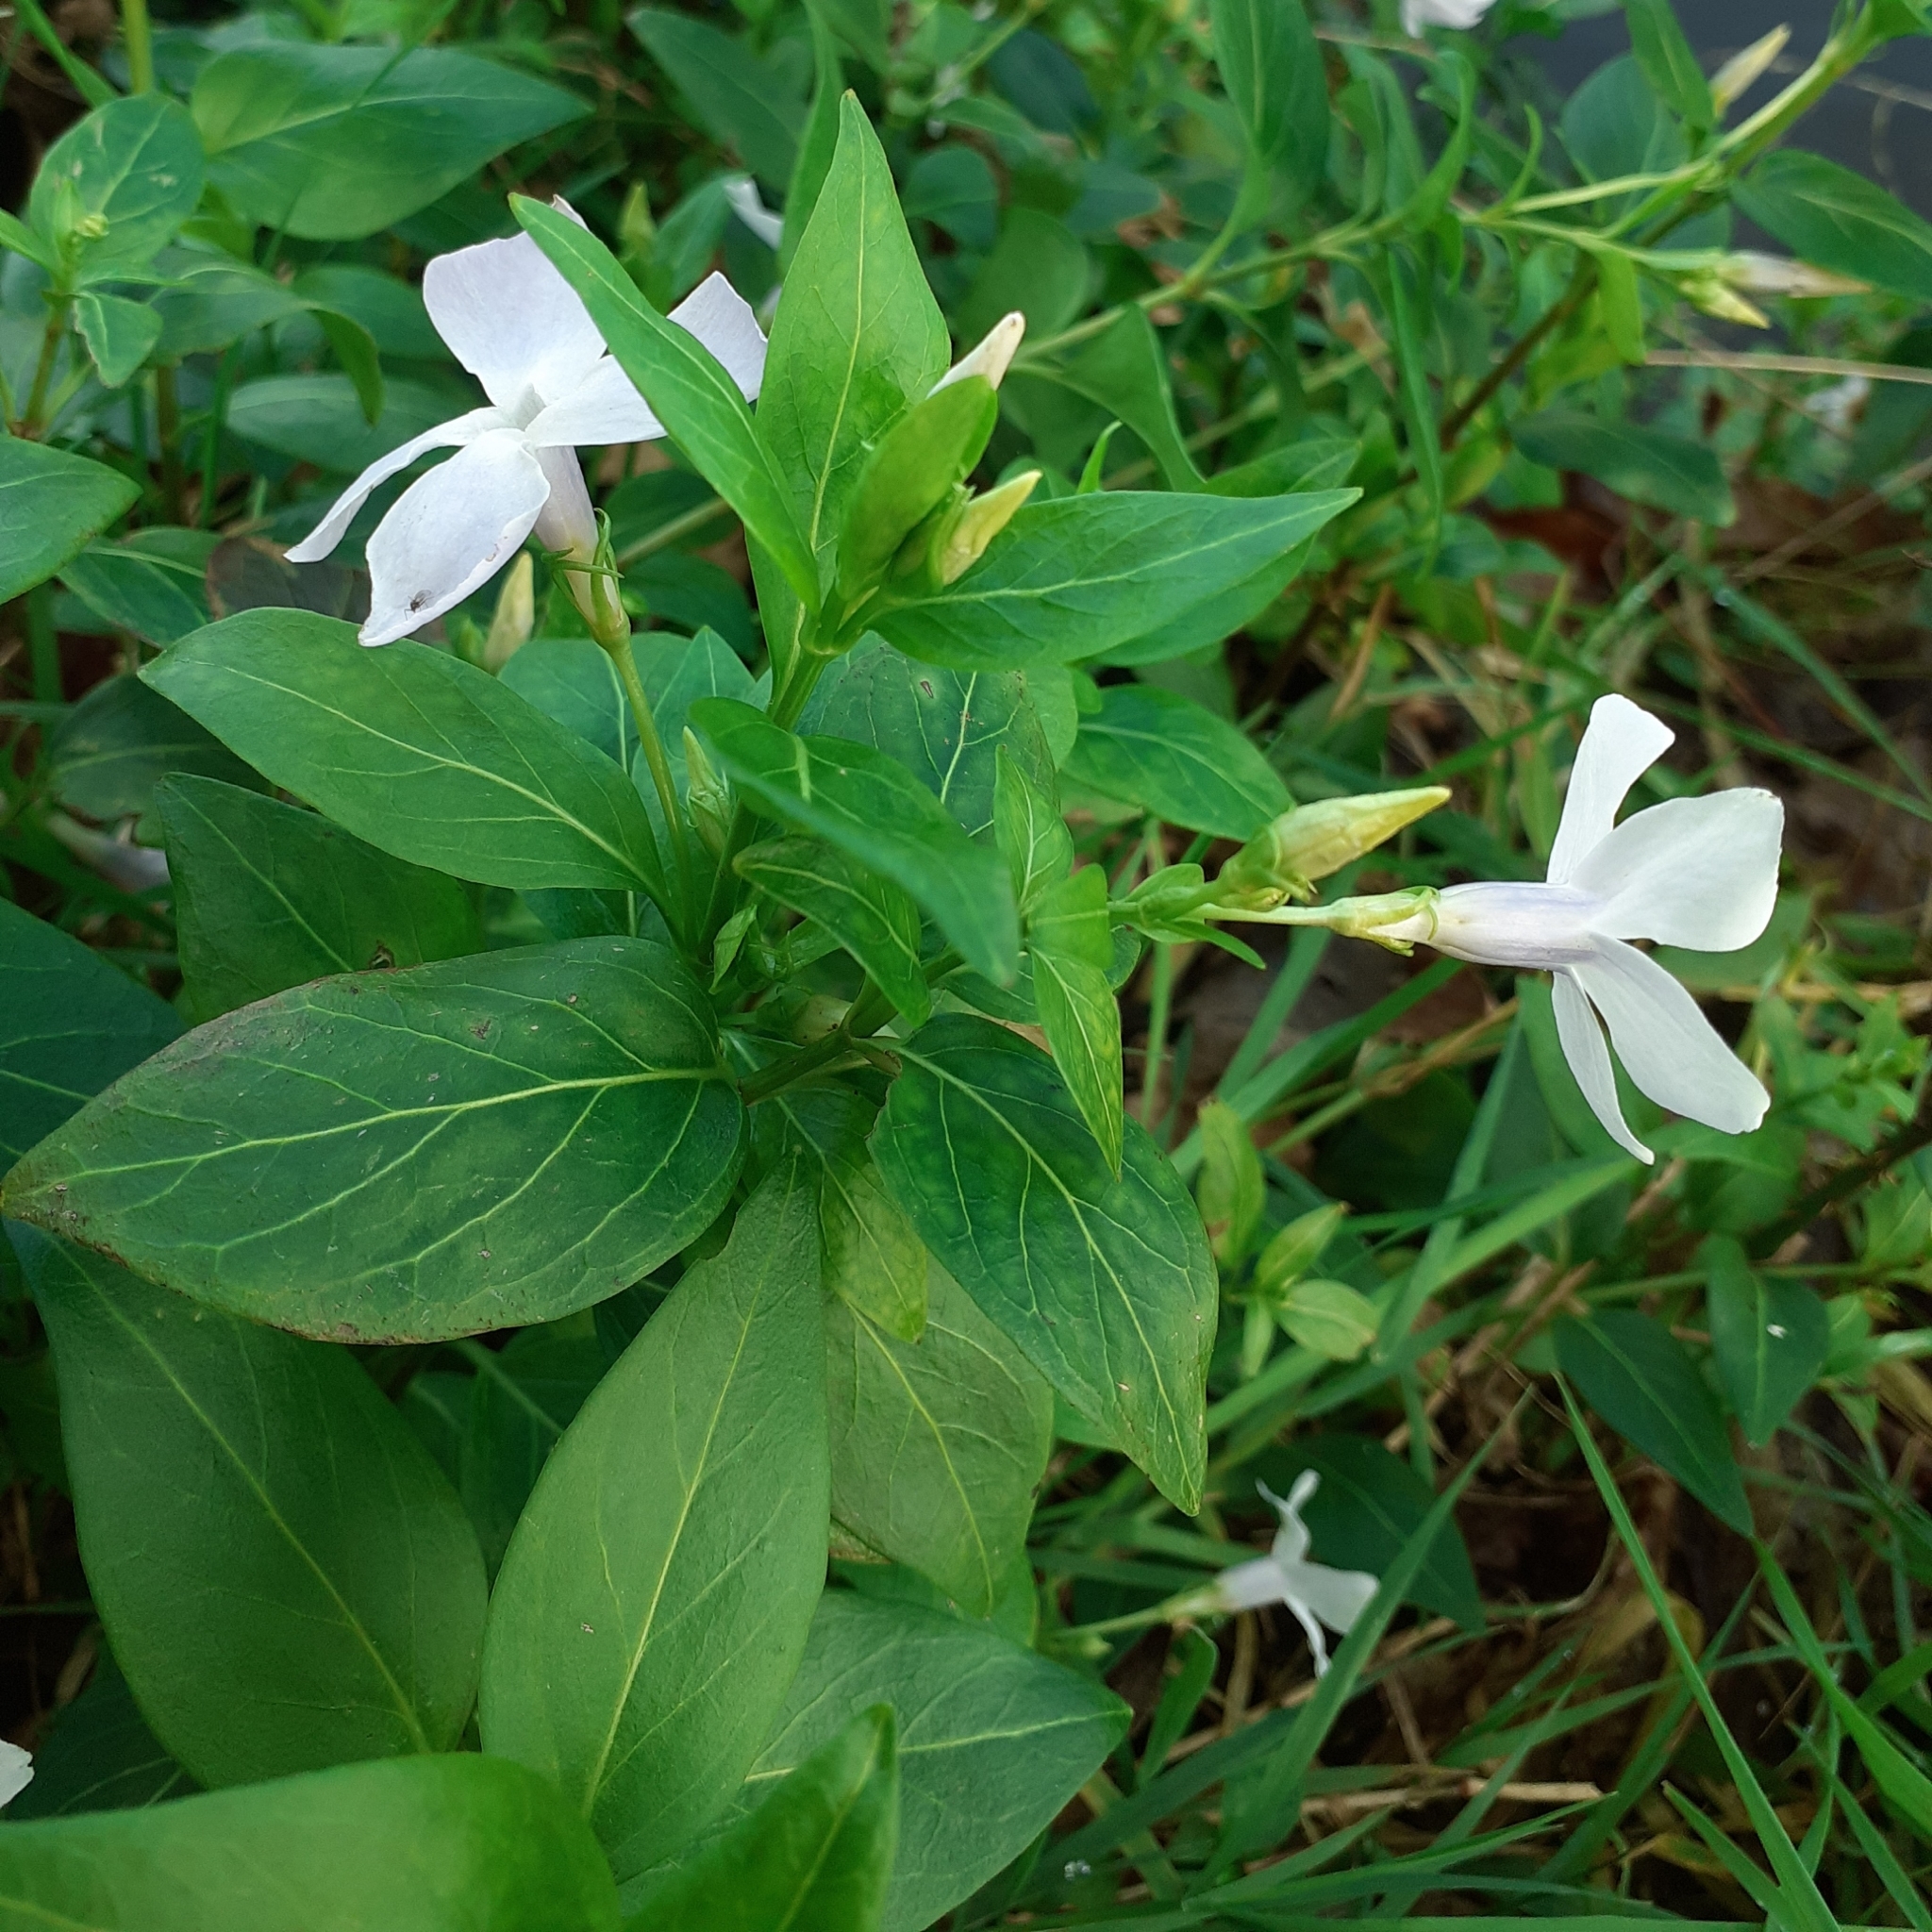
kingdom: Plantae
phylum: Tracheophyta
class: Magnoliopsida
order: Gentianales
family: Apocynaceae
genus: Vinca
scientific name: Vinca difformis
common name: Intermediate periwinkle
